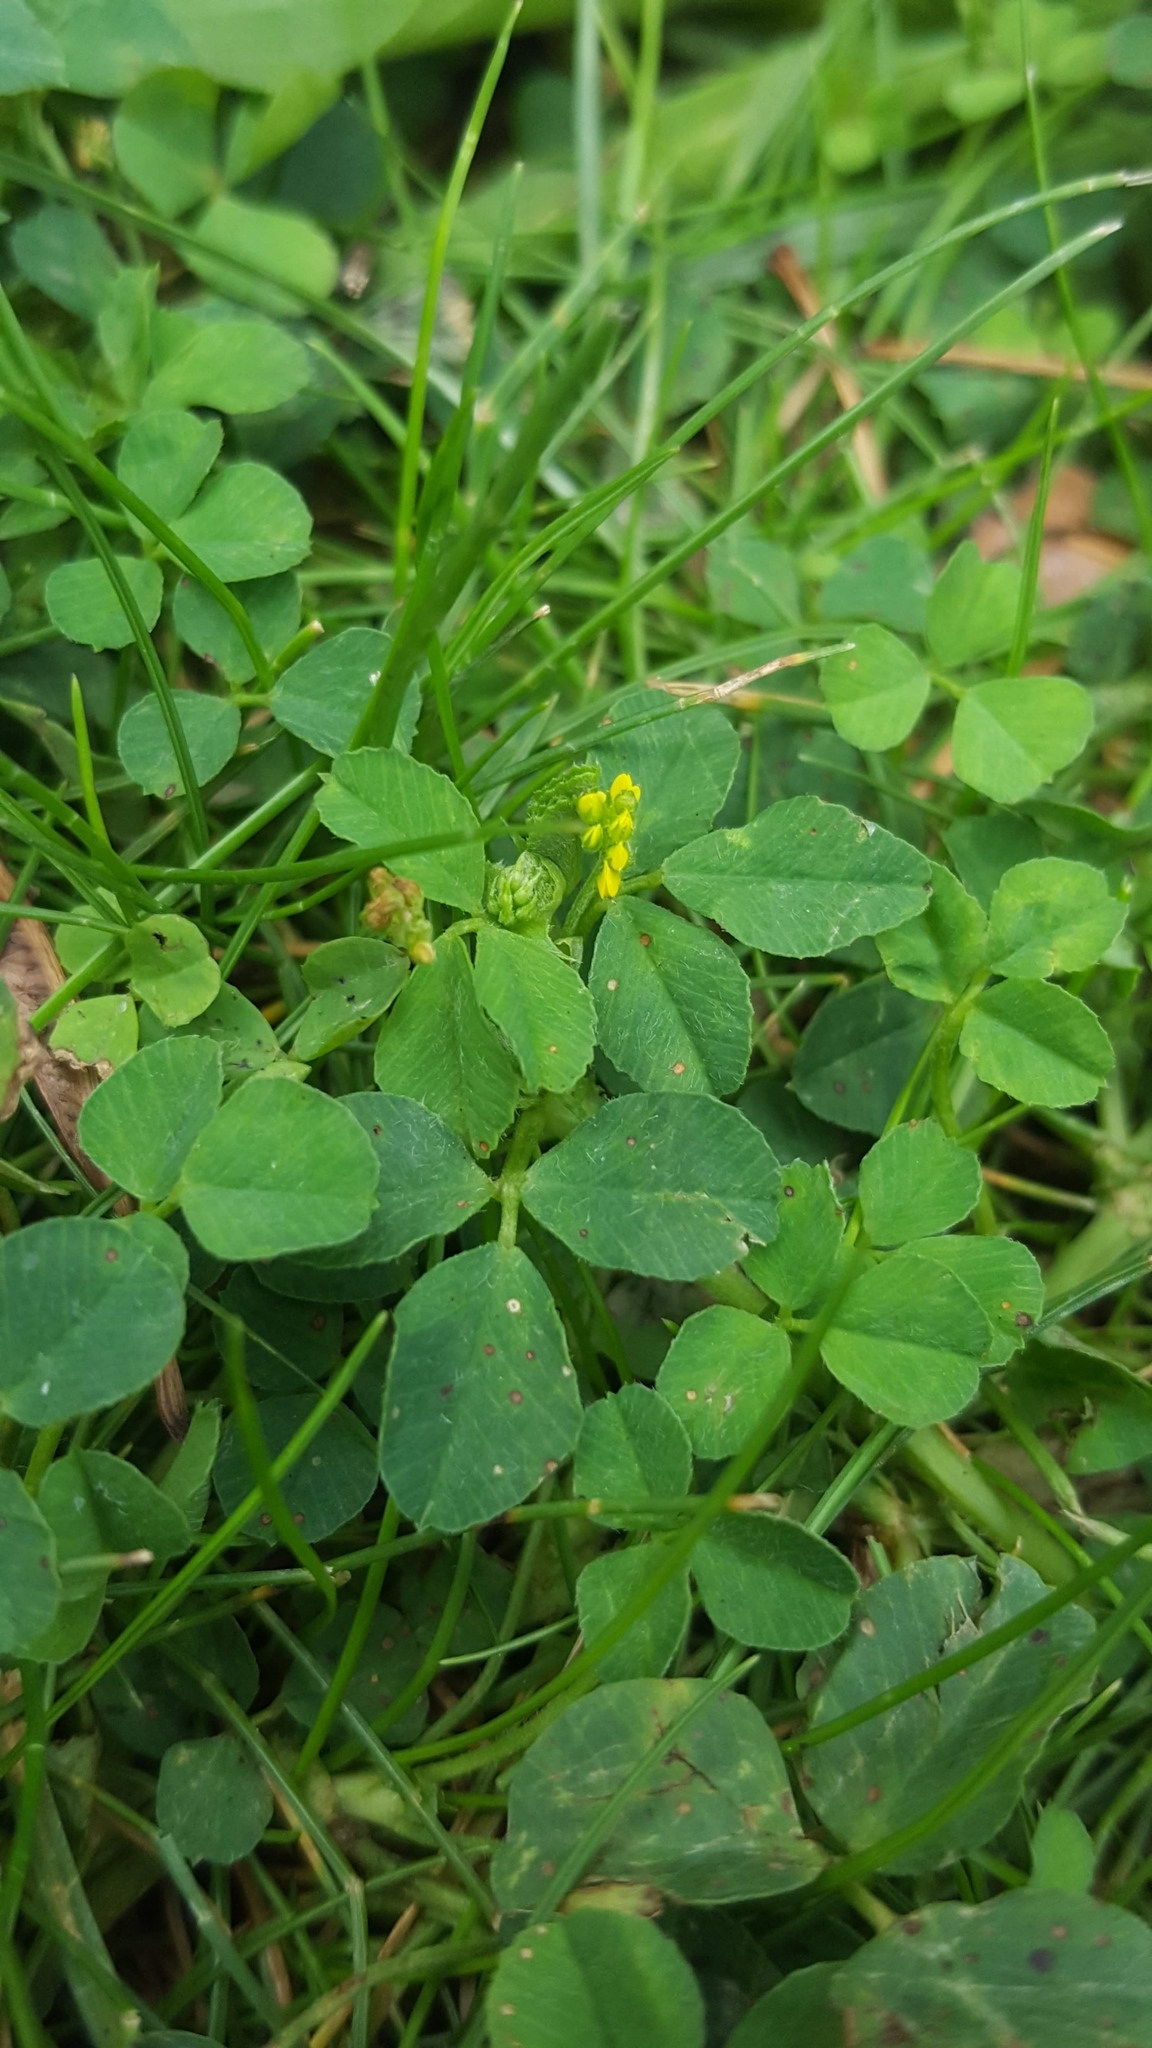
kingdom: Plantae
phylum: Tracheophyta
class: Magnoliopsida
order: Fabales
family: Fabaceae
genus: Medicago
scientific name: Medicago lupulina
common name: Black medick
